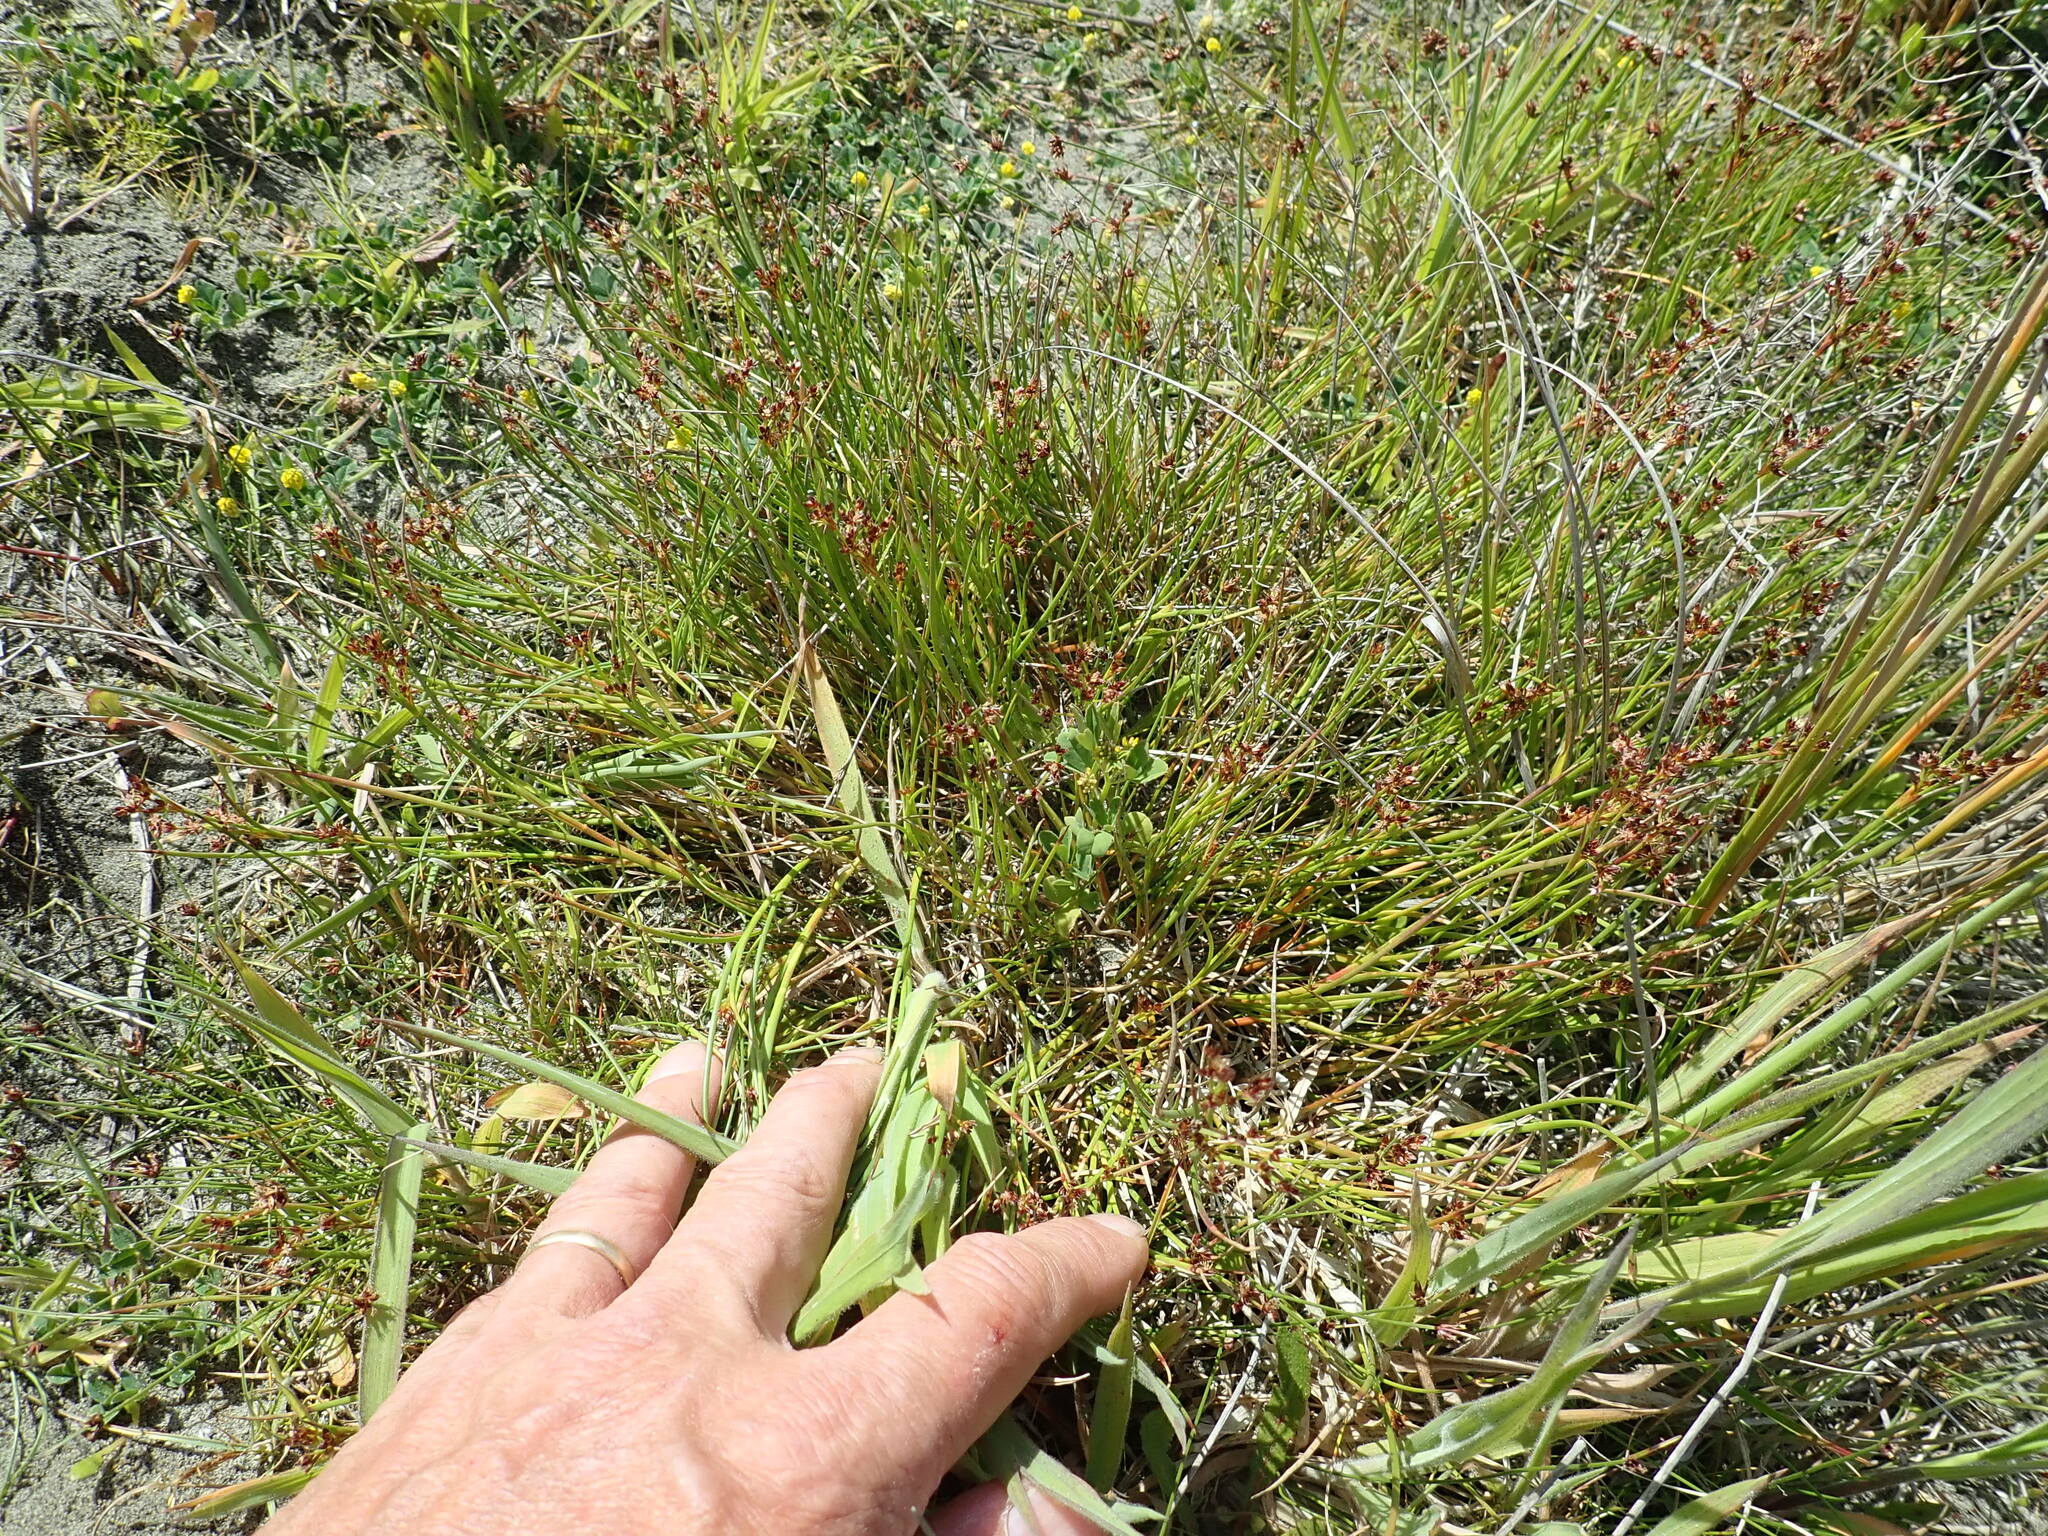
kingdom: Plantae
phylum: Tracheophyta
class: Liliopsida
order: Poales
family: Juncaceae
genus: Juncus
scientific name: Juncus articulatus
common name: Jointed rush
